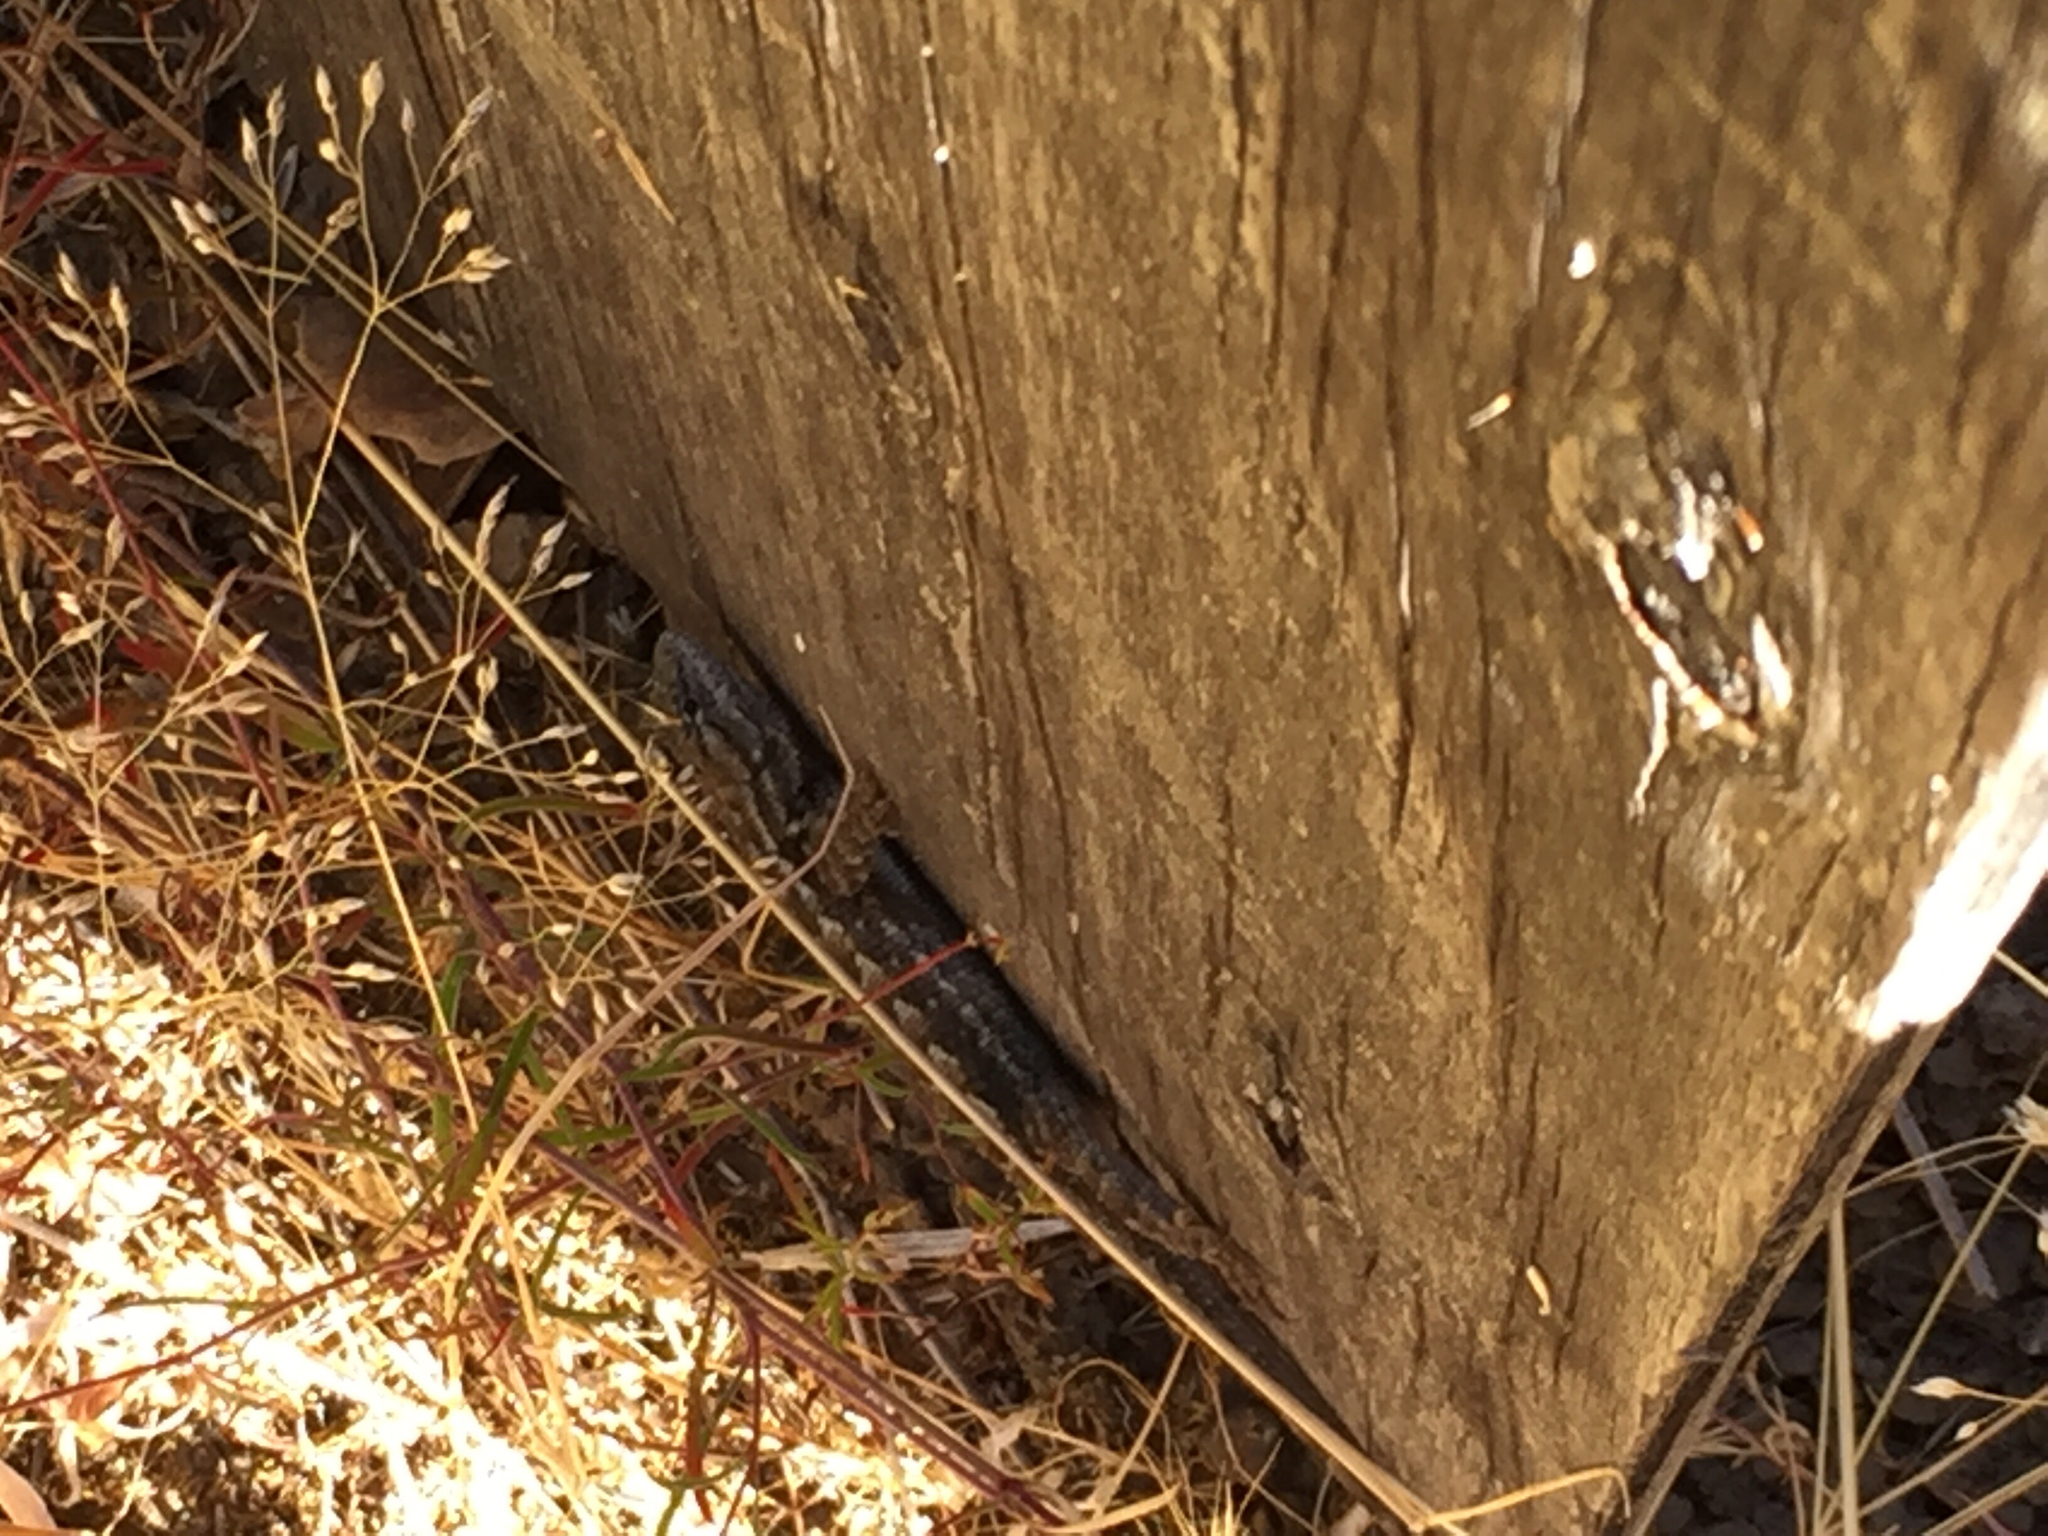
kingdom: Animalia
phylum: Chordata
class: Squamata
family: Phrynosomatidae
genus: Sceloporus
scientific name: Sceloporus occidentalis
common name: Western fence lizard
